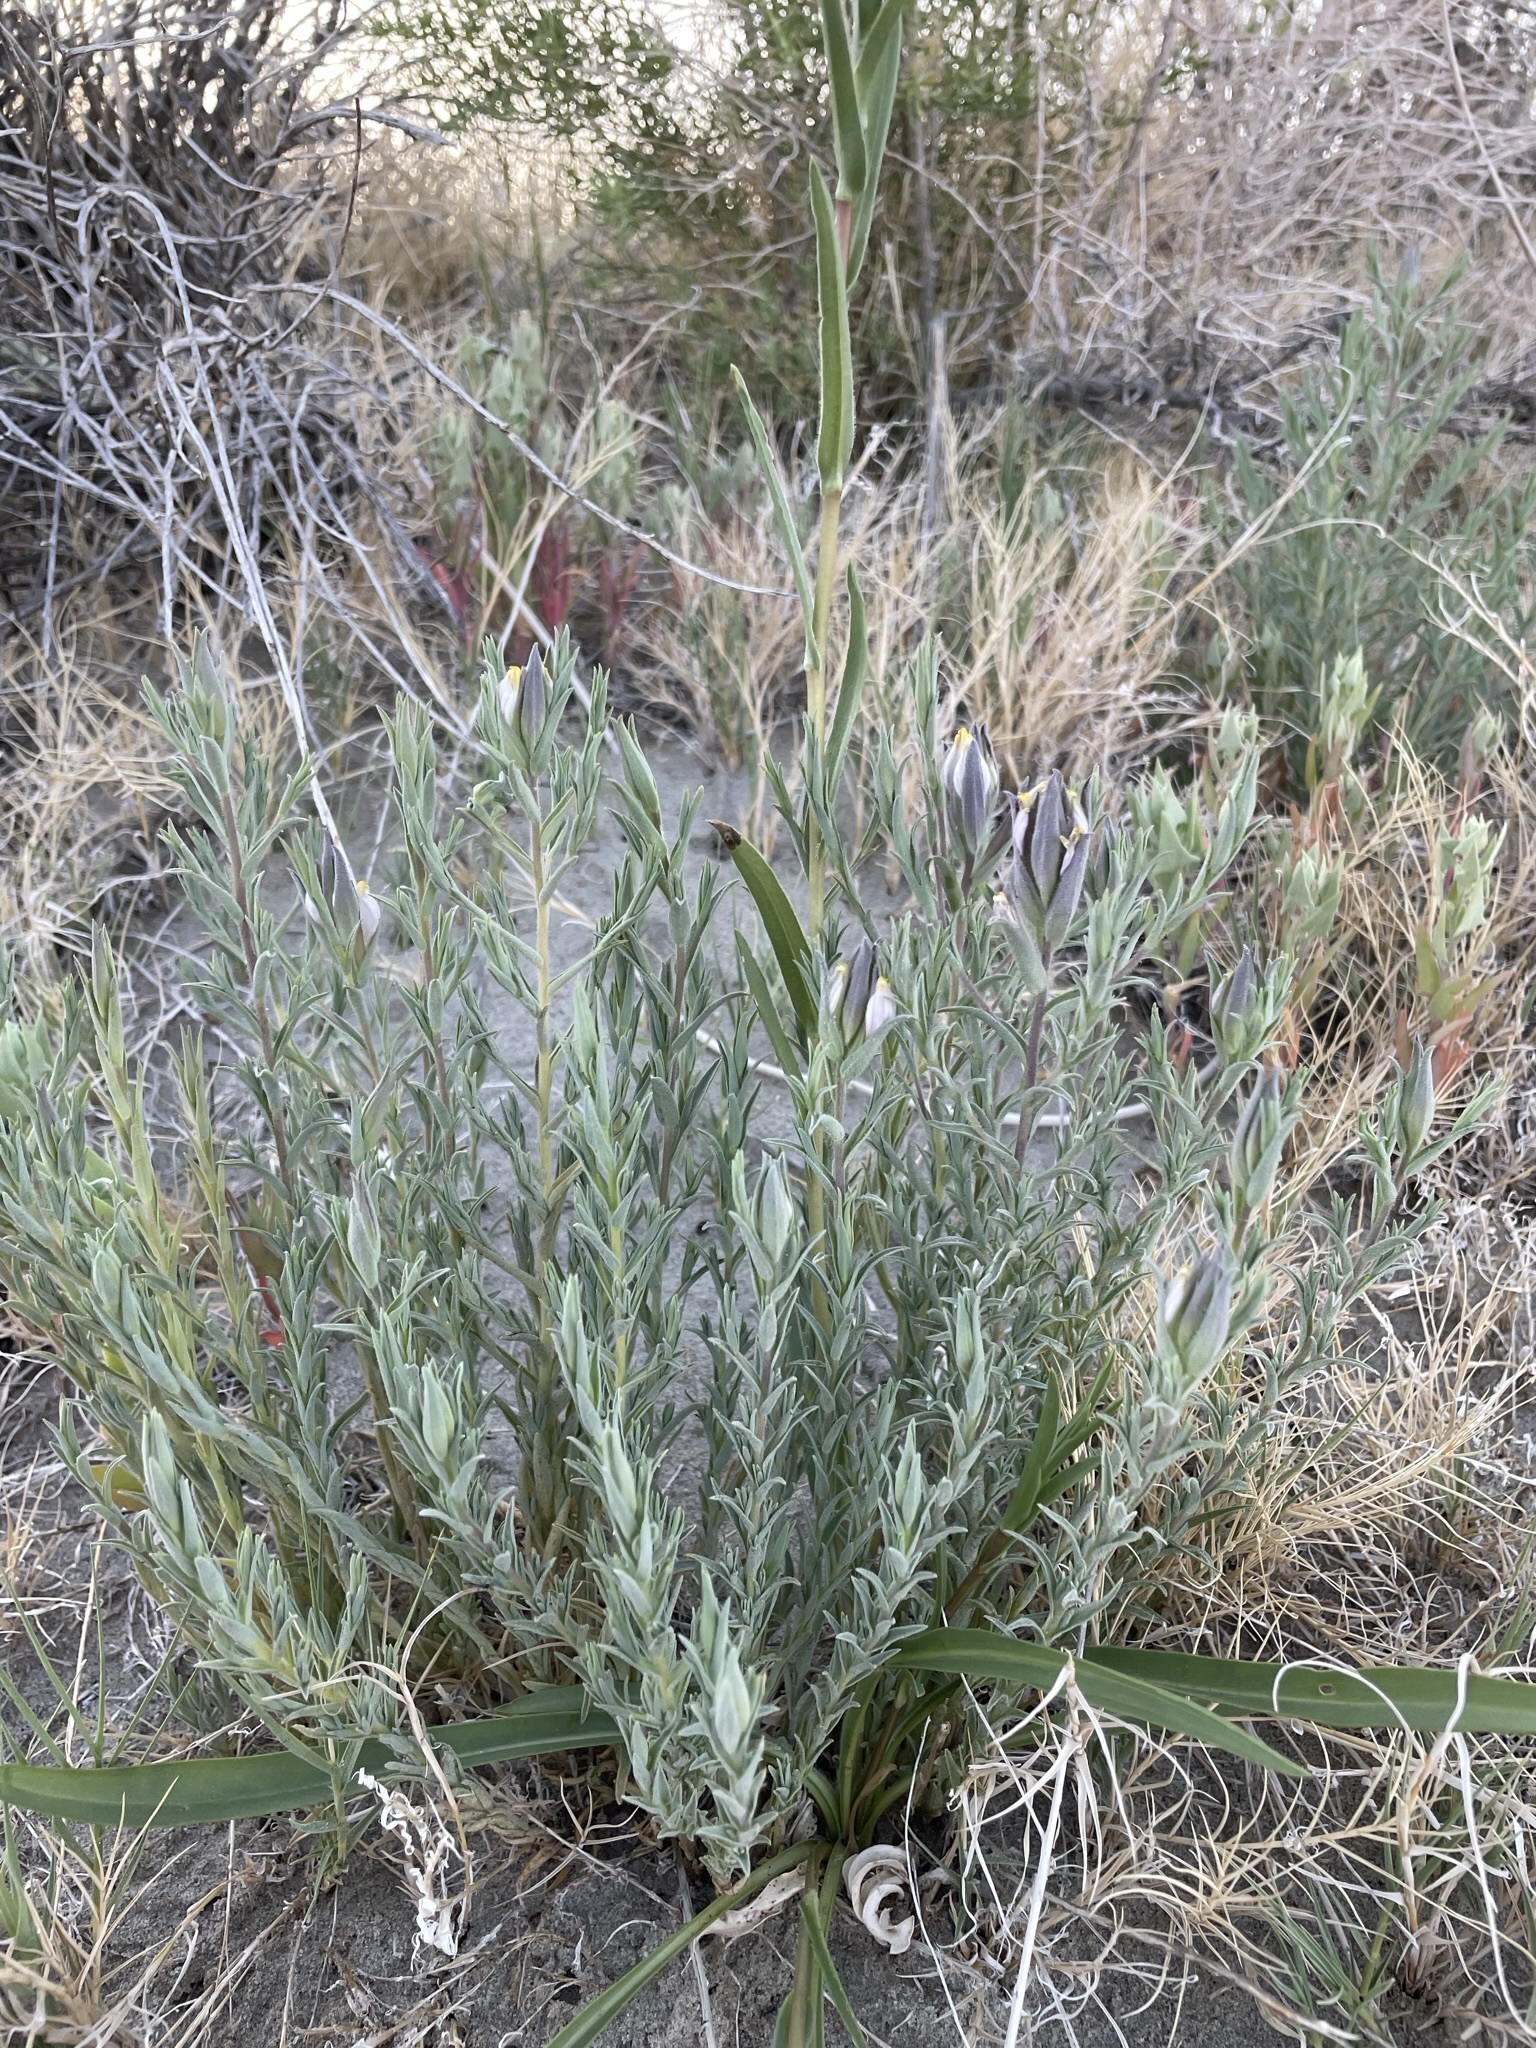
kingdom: Plantae
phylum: Tracheophyta
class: Magnoliopsida
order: Lamiales
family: Orobanchaceae
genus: Chloropyron
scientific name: Chloropyron maritimum
